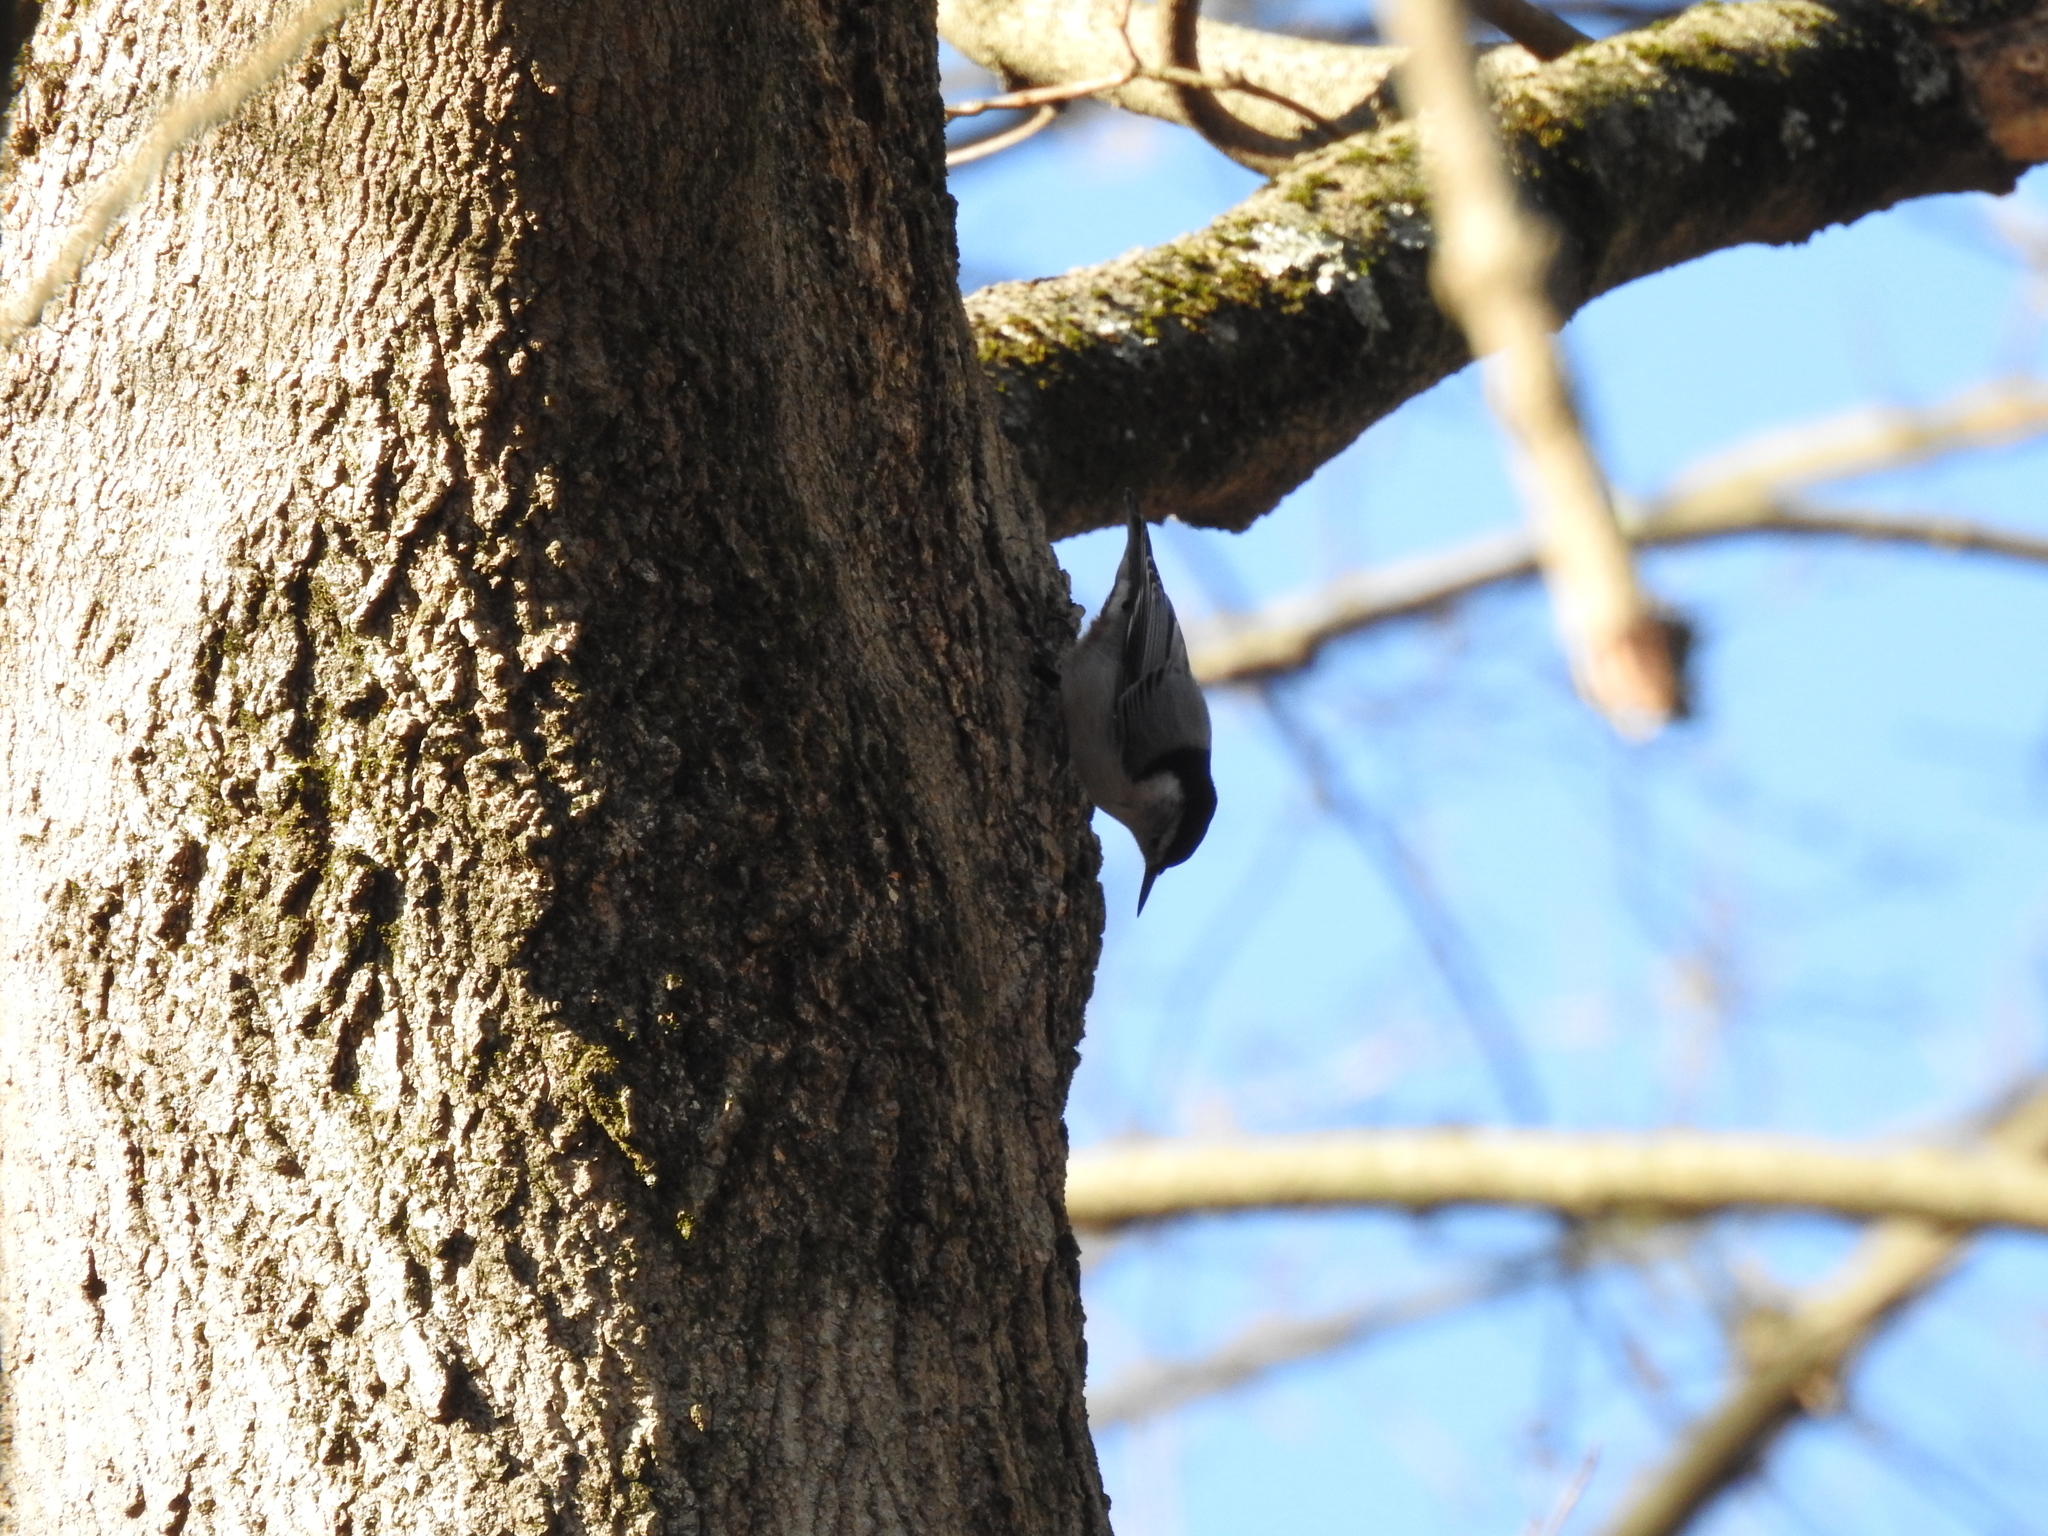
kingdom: Animalia
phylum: Chordata
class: Aves
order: Passeriformes
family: Sittidae
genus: Sitta
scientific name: Sitta carolinensis
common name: White-breasted nuthatch
